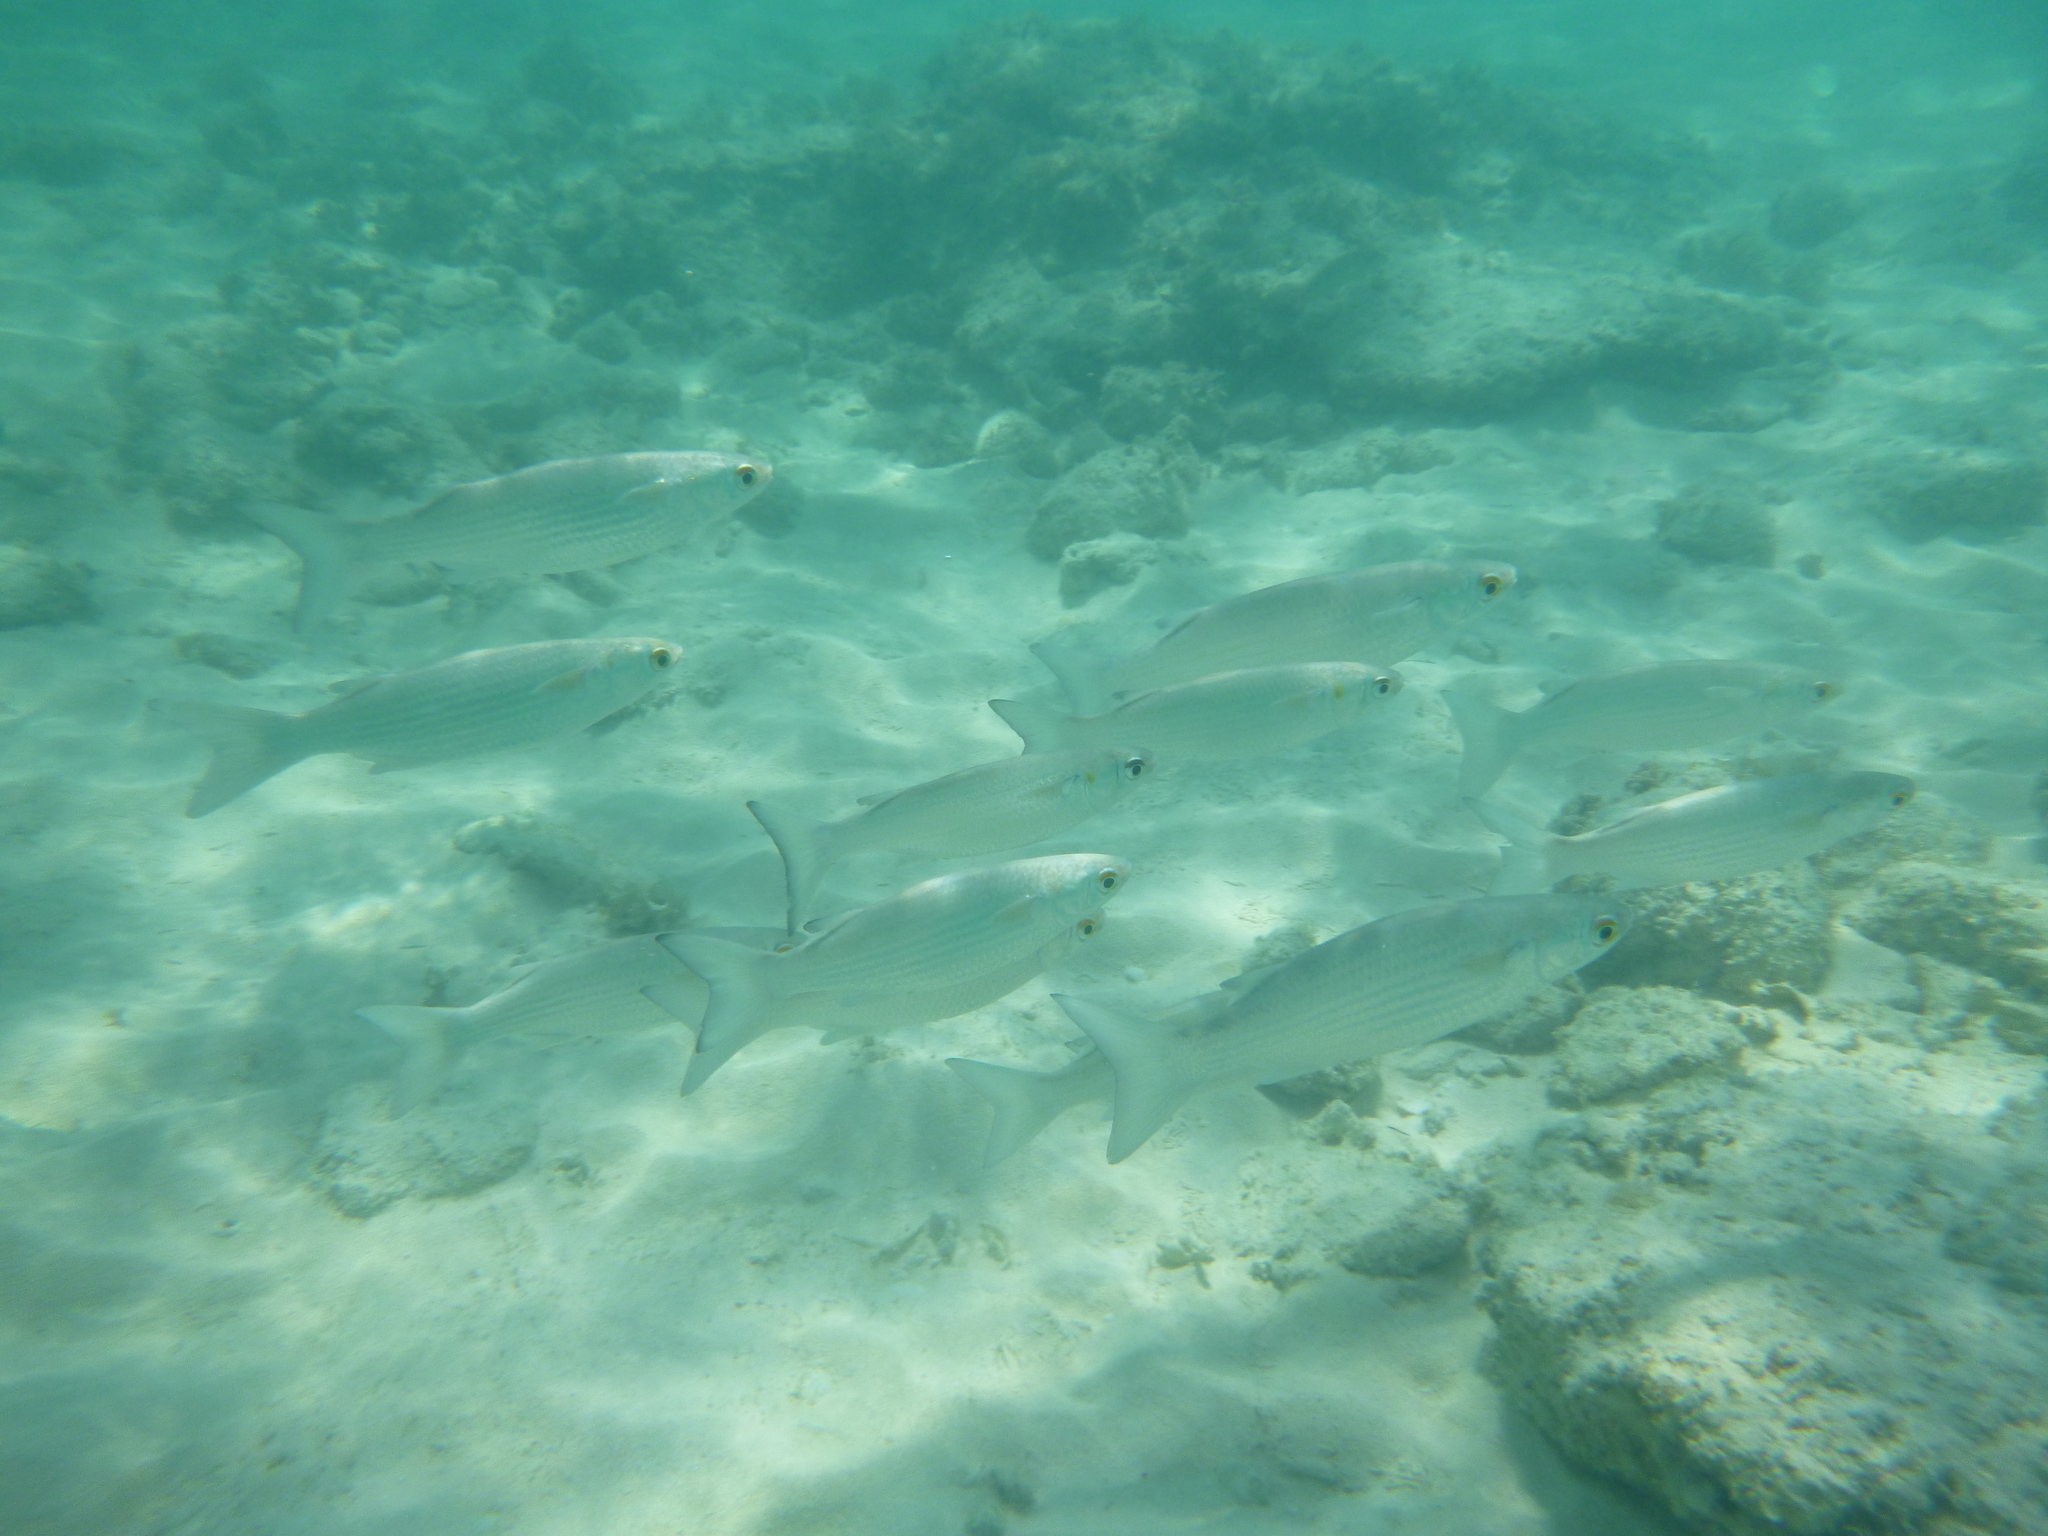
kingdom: Animalia
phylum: Chordata
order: Mugiliformes
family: Mugilidae
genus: Mugil
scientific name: Mugil curema
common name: White mullet
